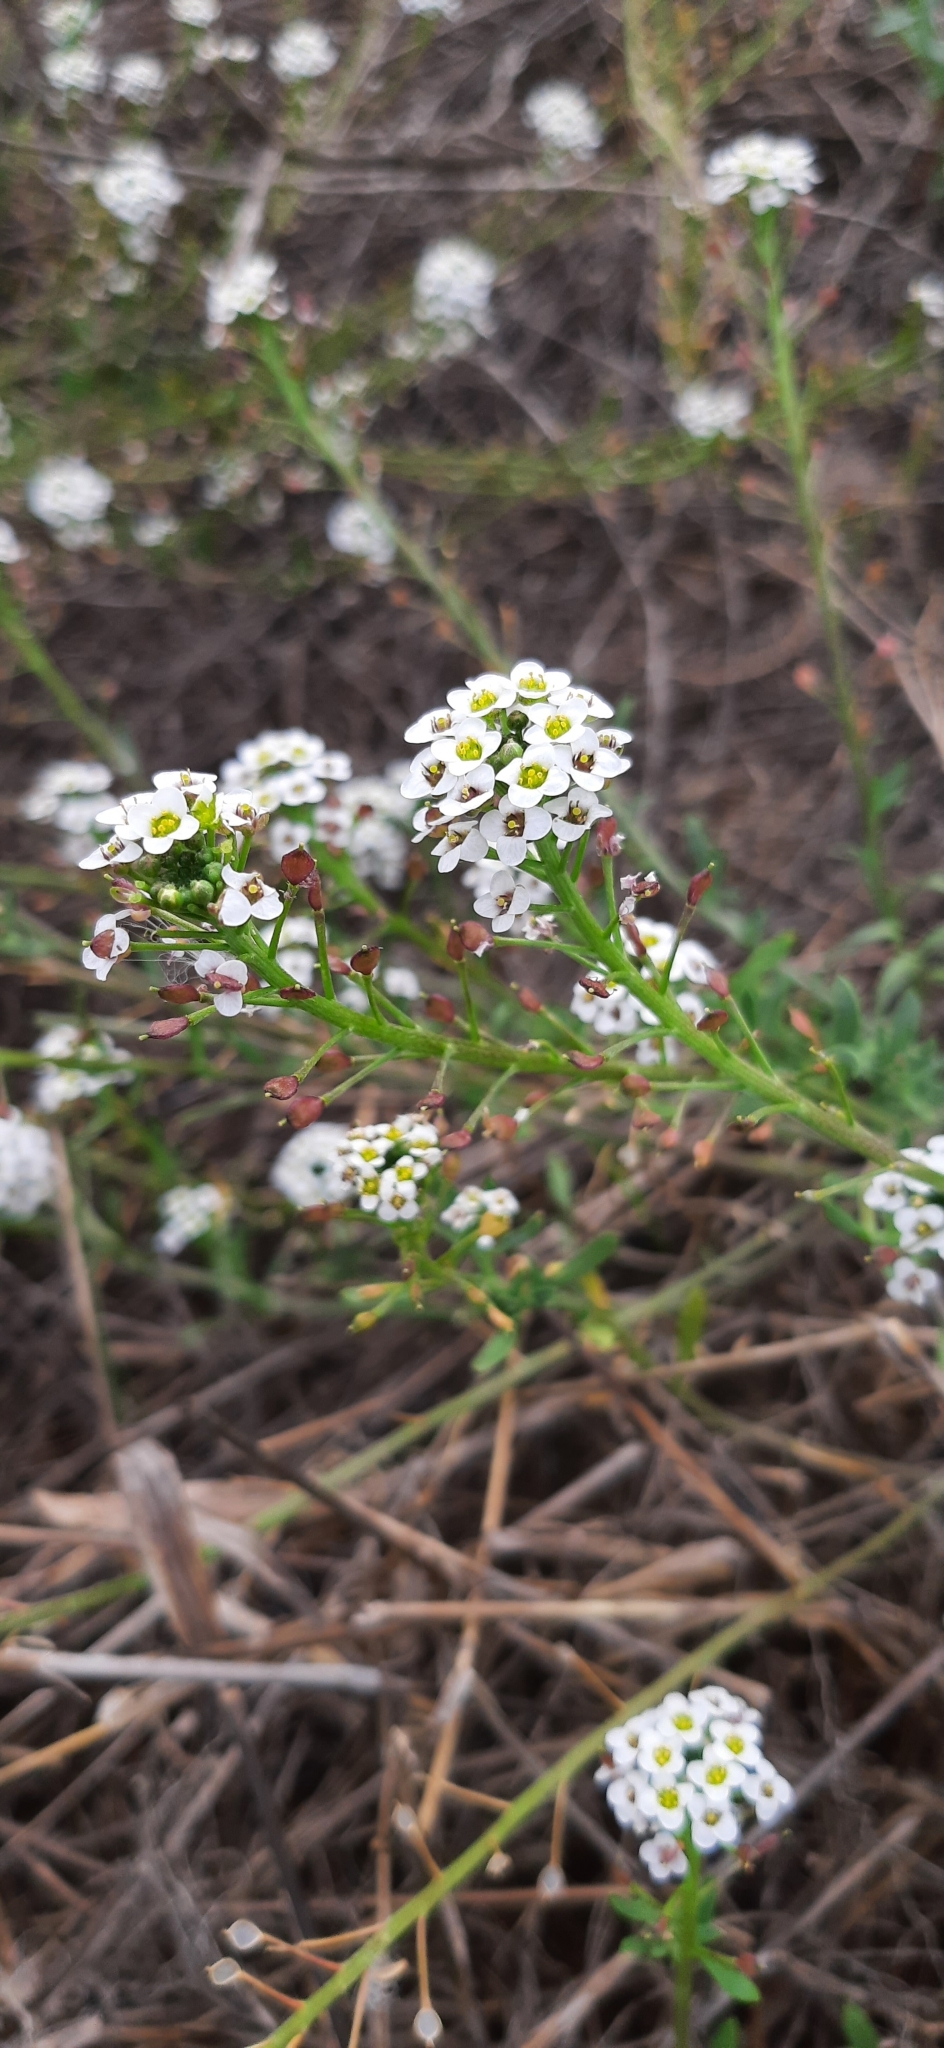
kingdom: Plantae
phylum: Tracheophyta
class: Magnoliopsida
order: Brassicales
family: Brassicaceae
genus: Lobularia
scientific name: Lobularia maritima
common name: Sweet alison
